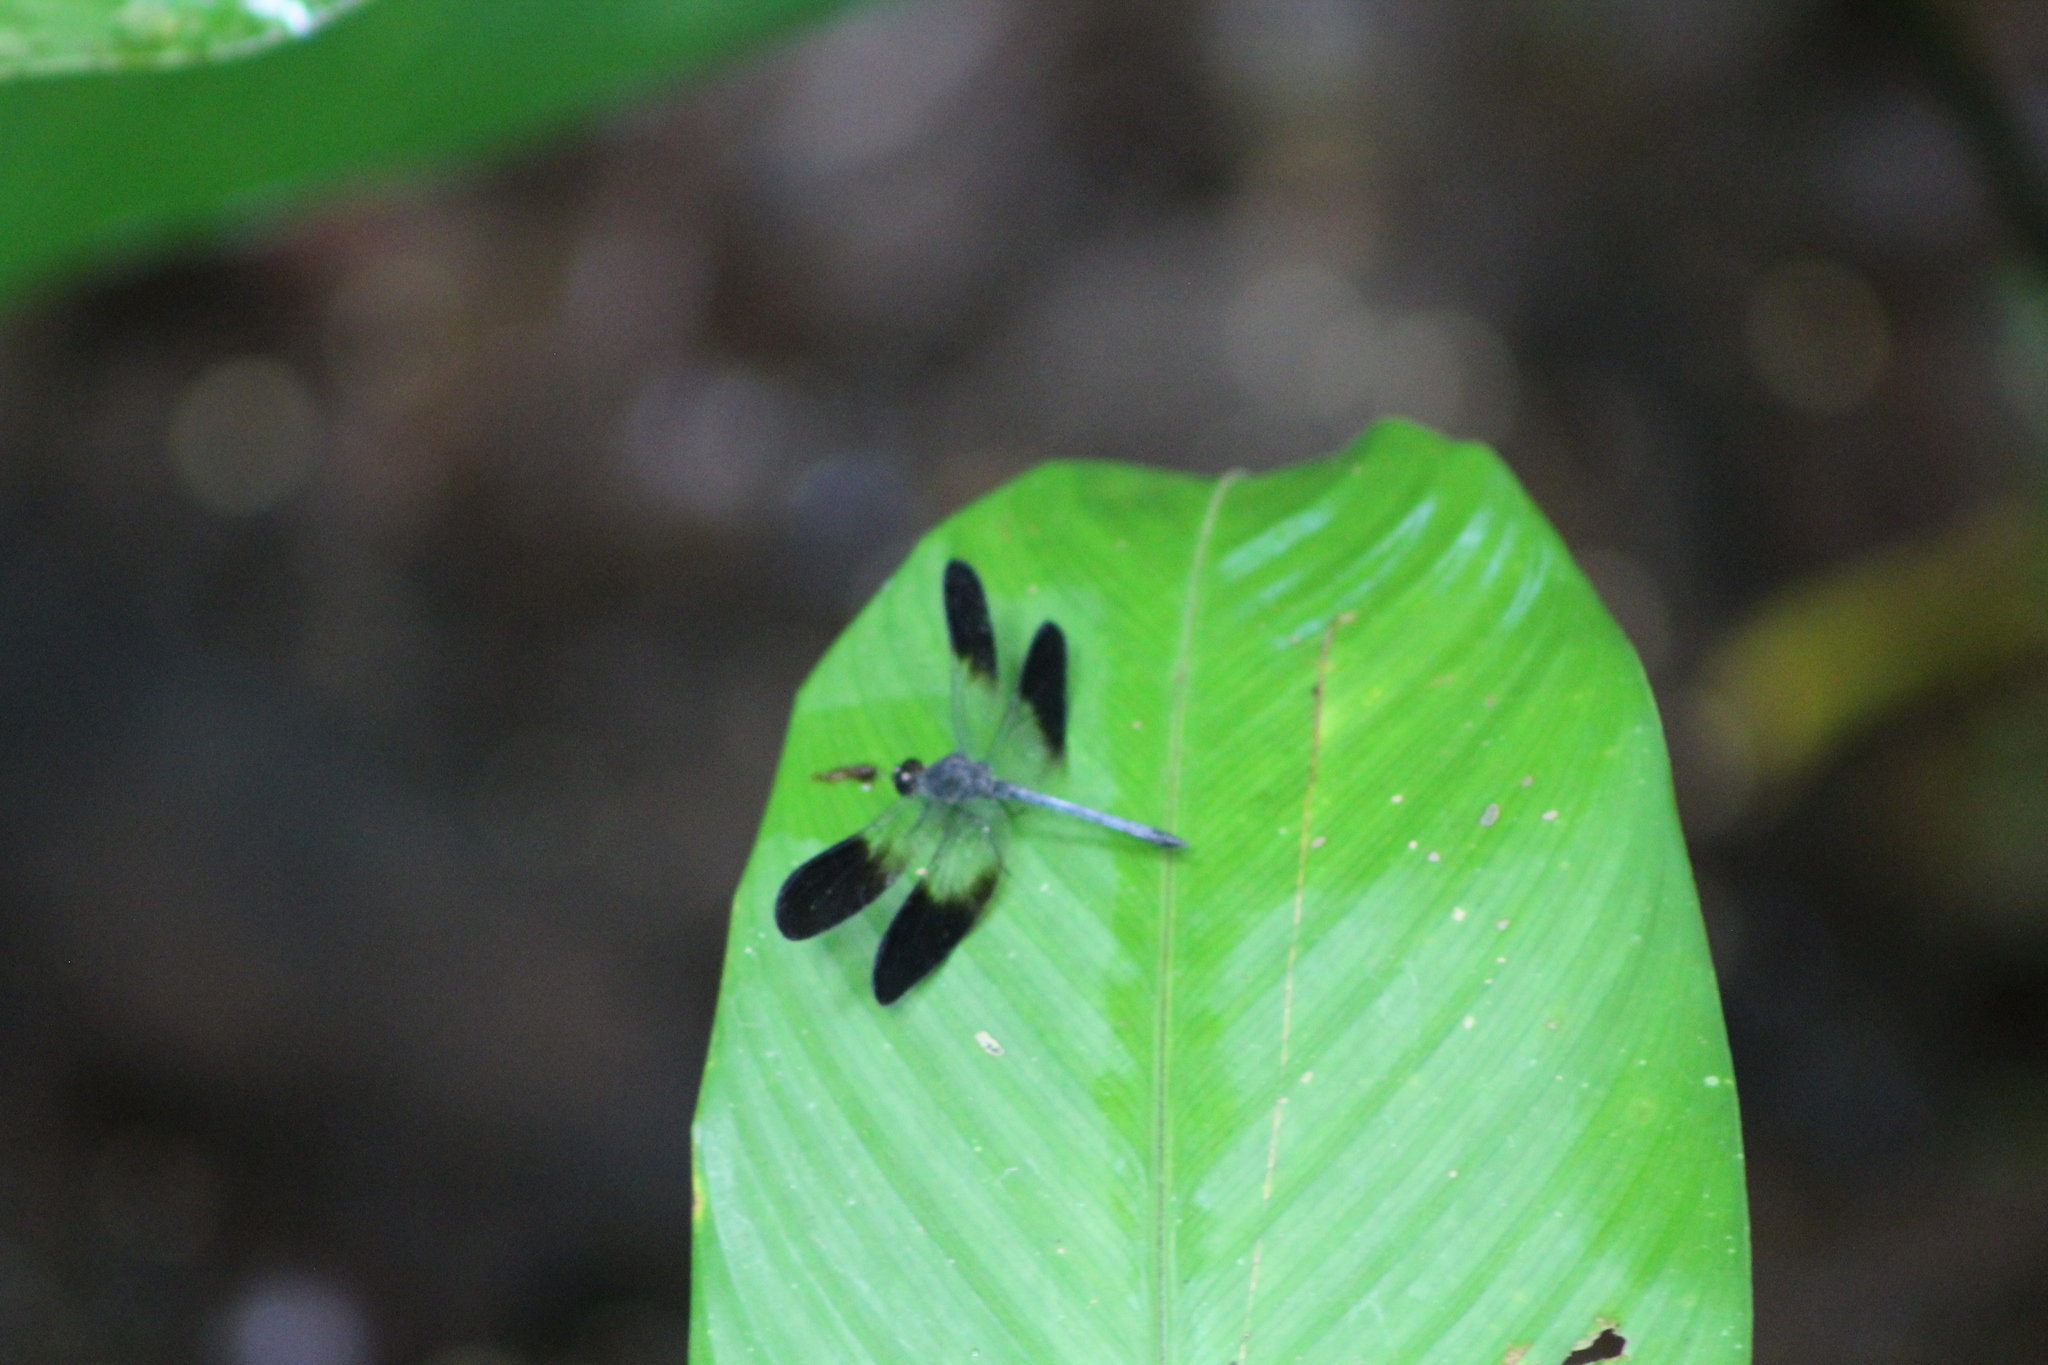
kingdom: Animalia
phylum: Arthropoda
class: Insecta
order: Odonata
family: Libellulidae
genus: Uracis
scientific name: Uracis fastigiata
